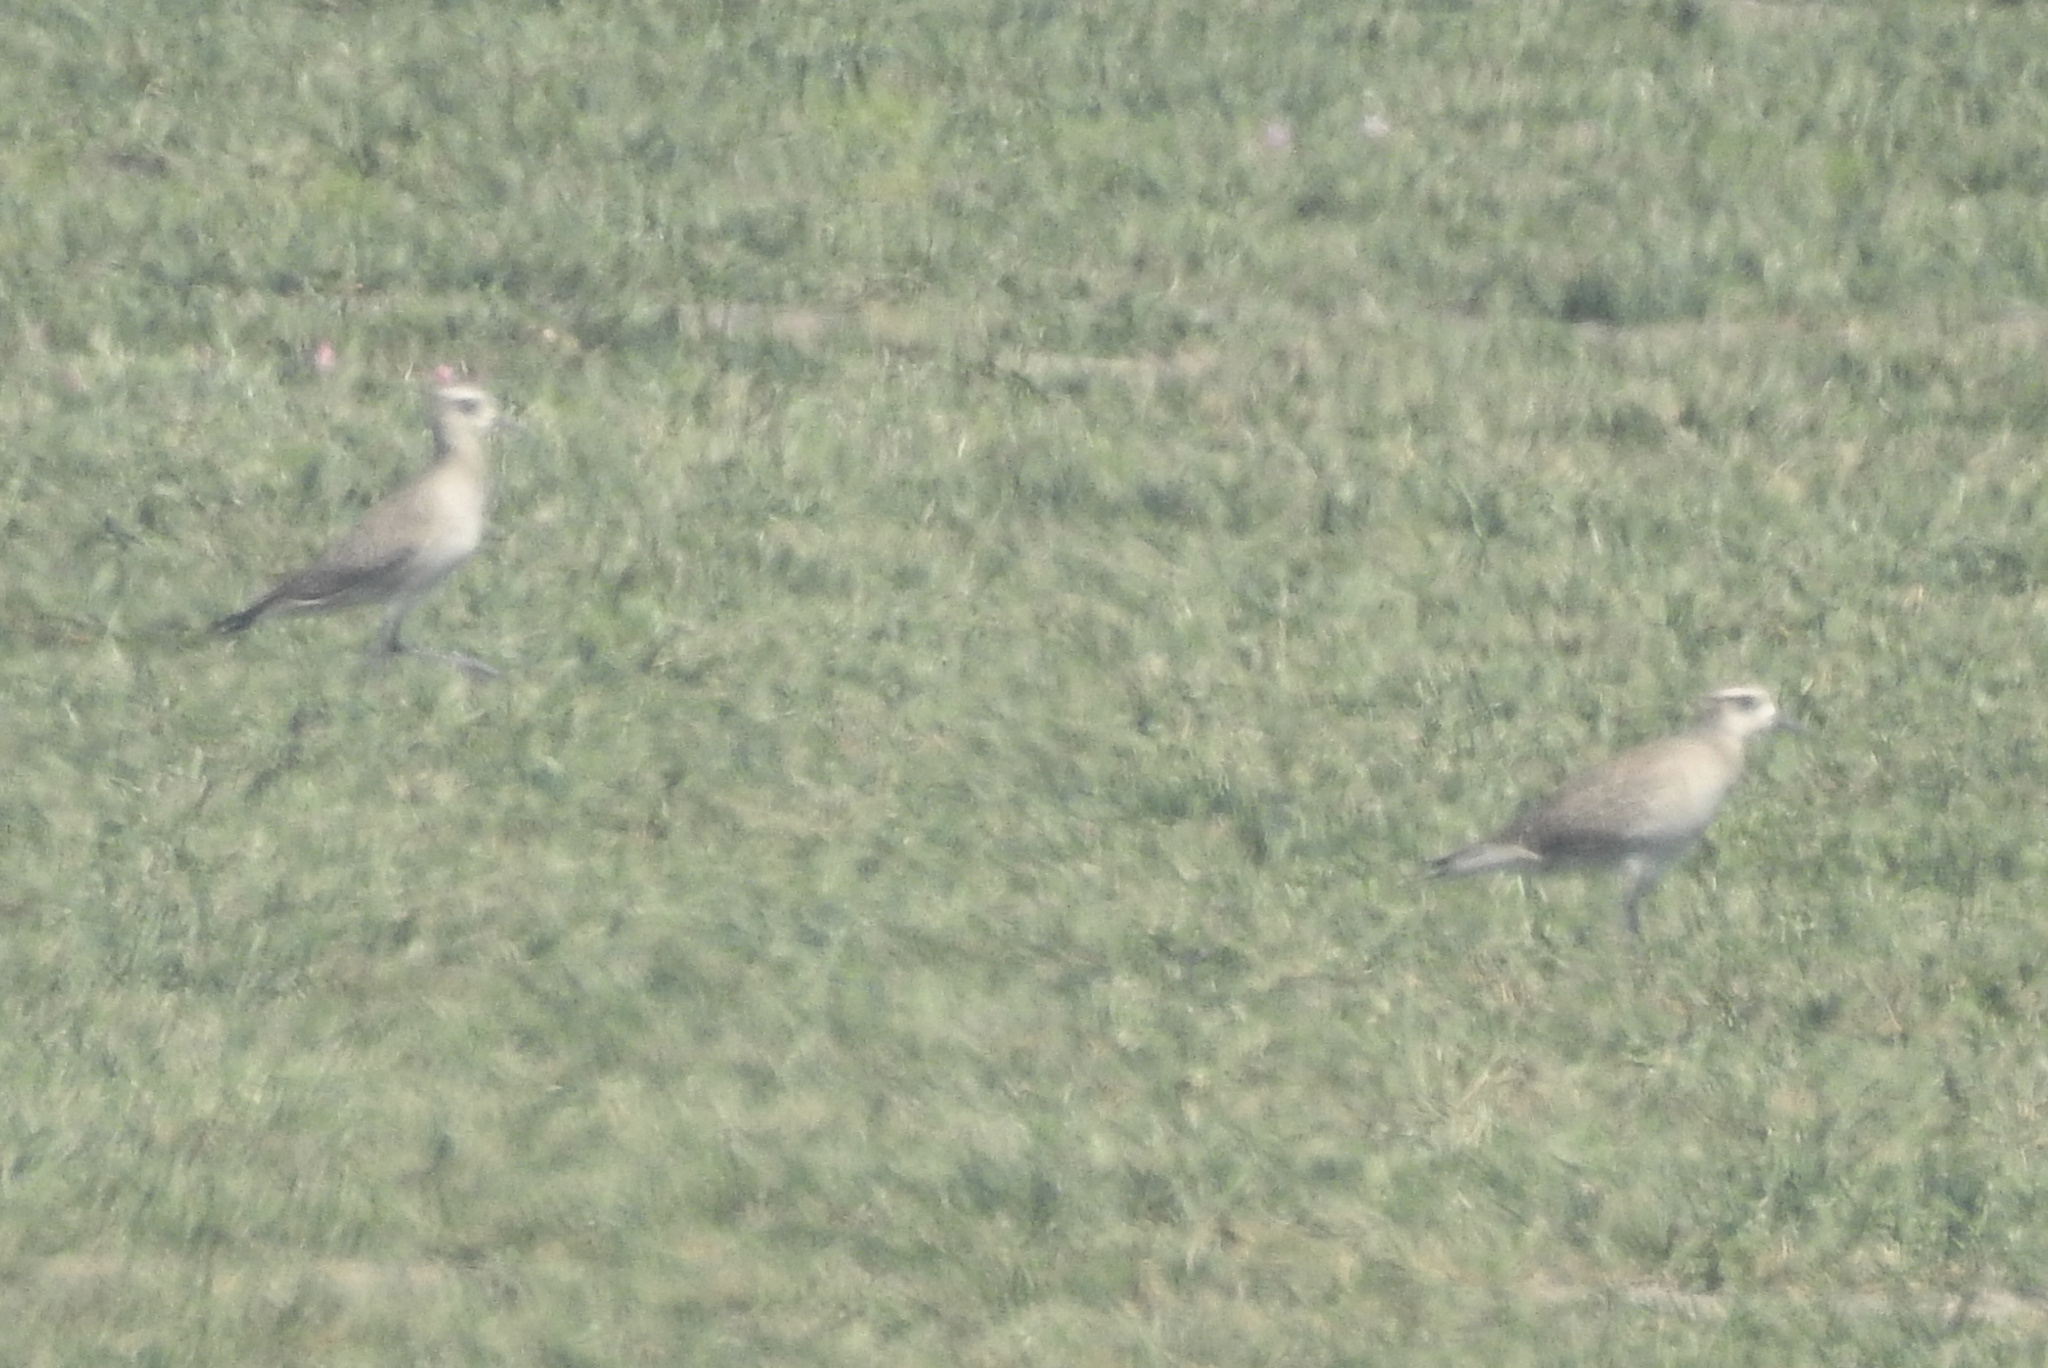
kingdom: Animalia
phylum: Chordata
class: Aves
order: Charadriiformes
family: Charadriidae
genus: Pluvialis
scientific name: Pluvialis dominica
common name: American golden plover
